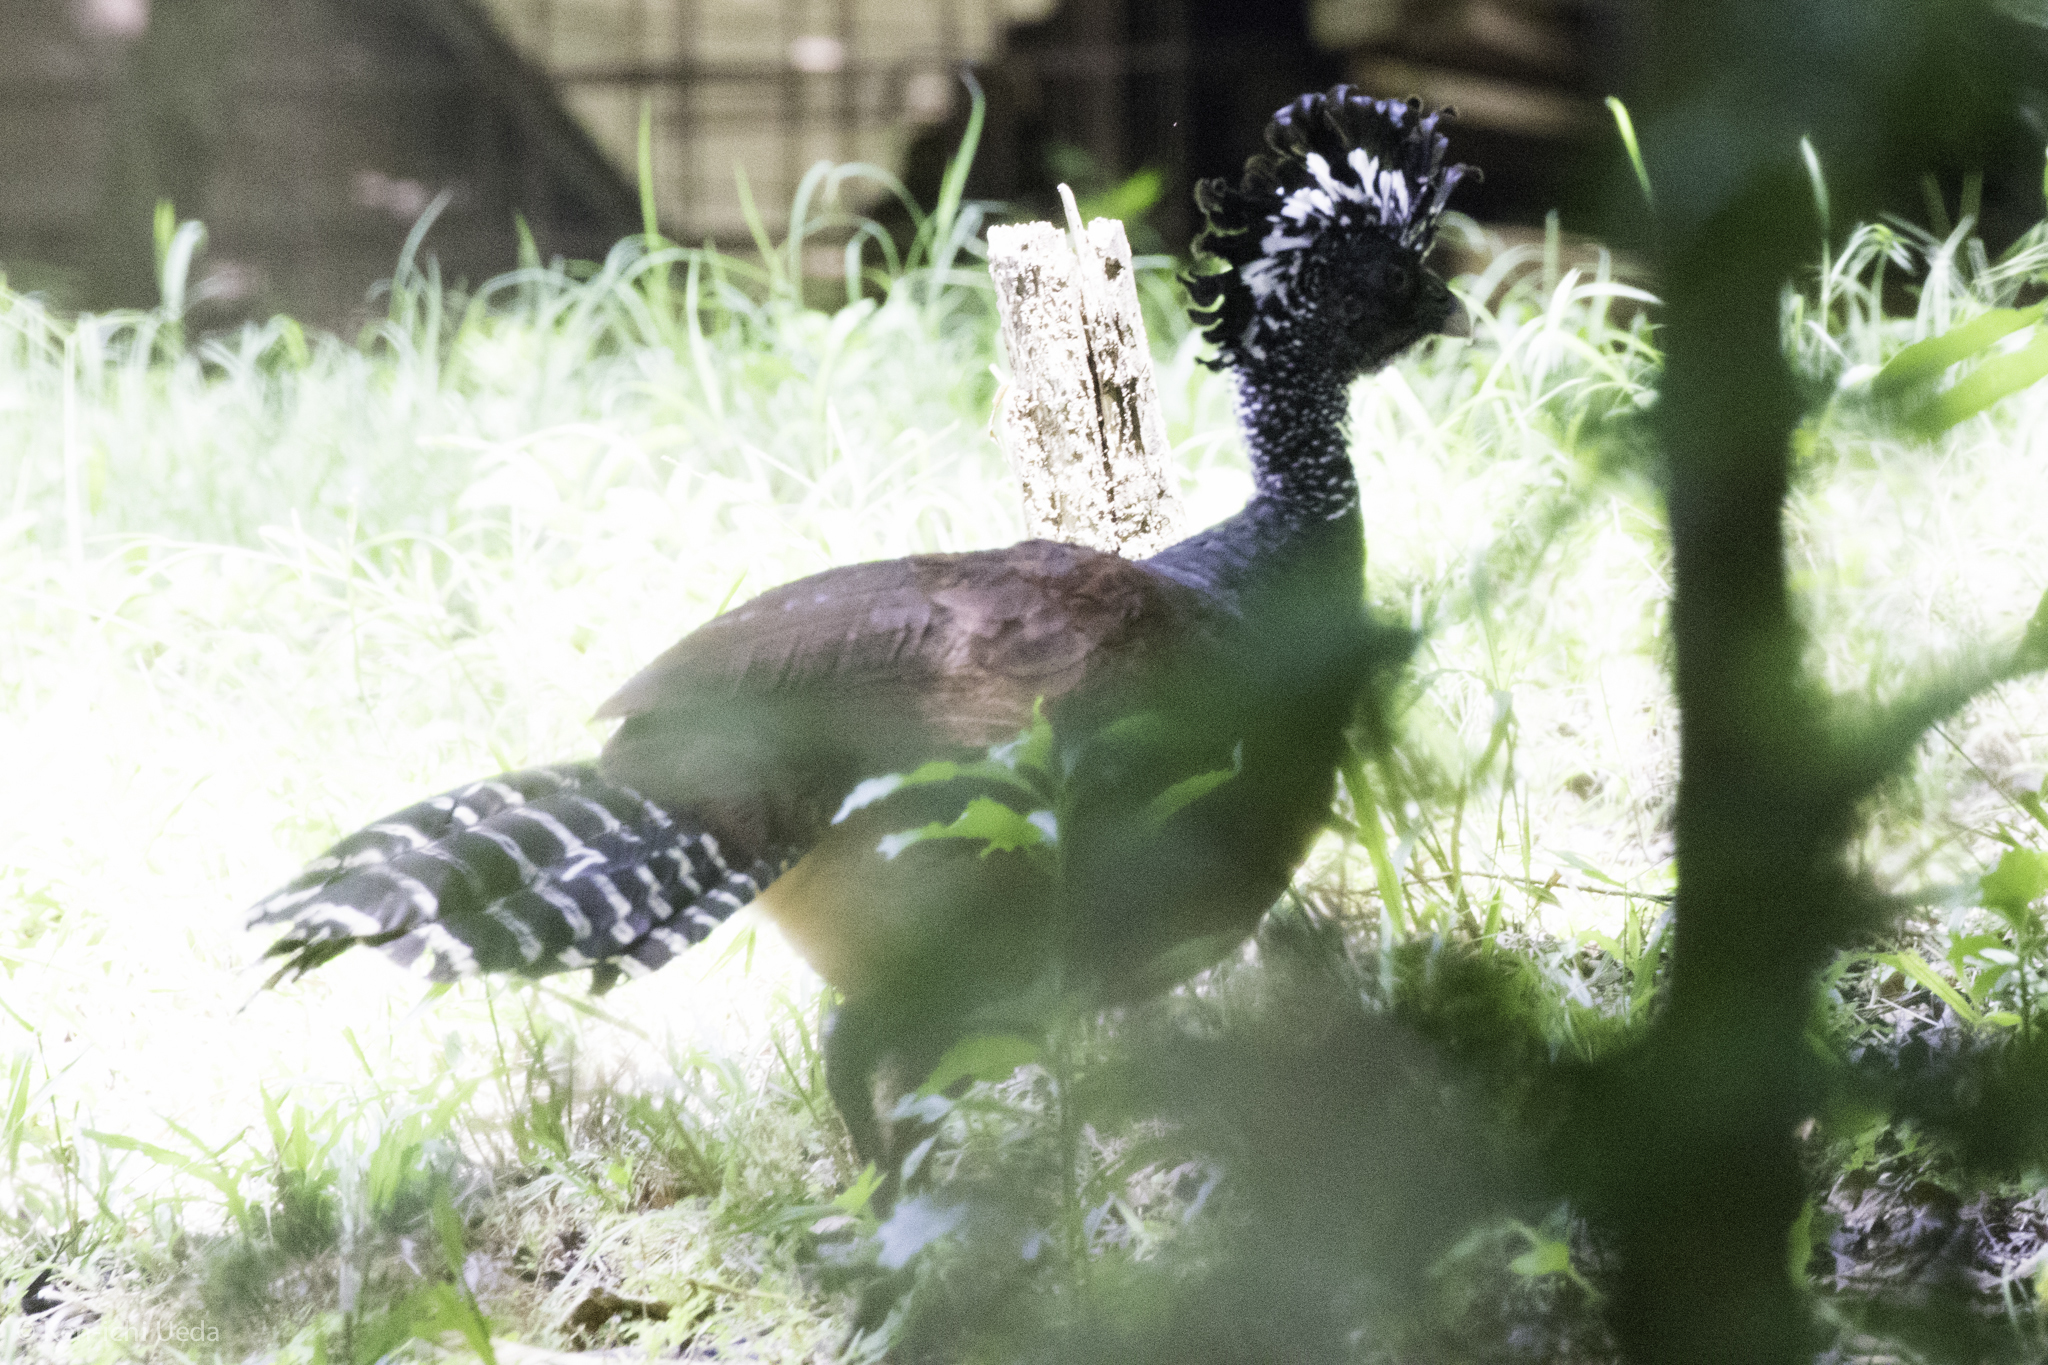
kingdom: Animalia
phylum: Chordata
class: Aves
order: Galliformes
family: Cracidae
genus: Crax
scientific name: Crax rubra
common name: Great curassow
